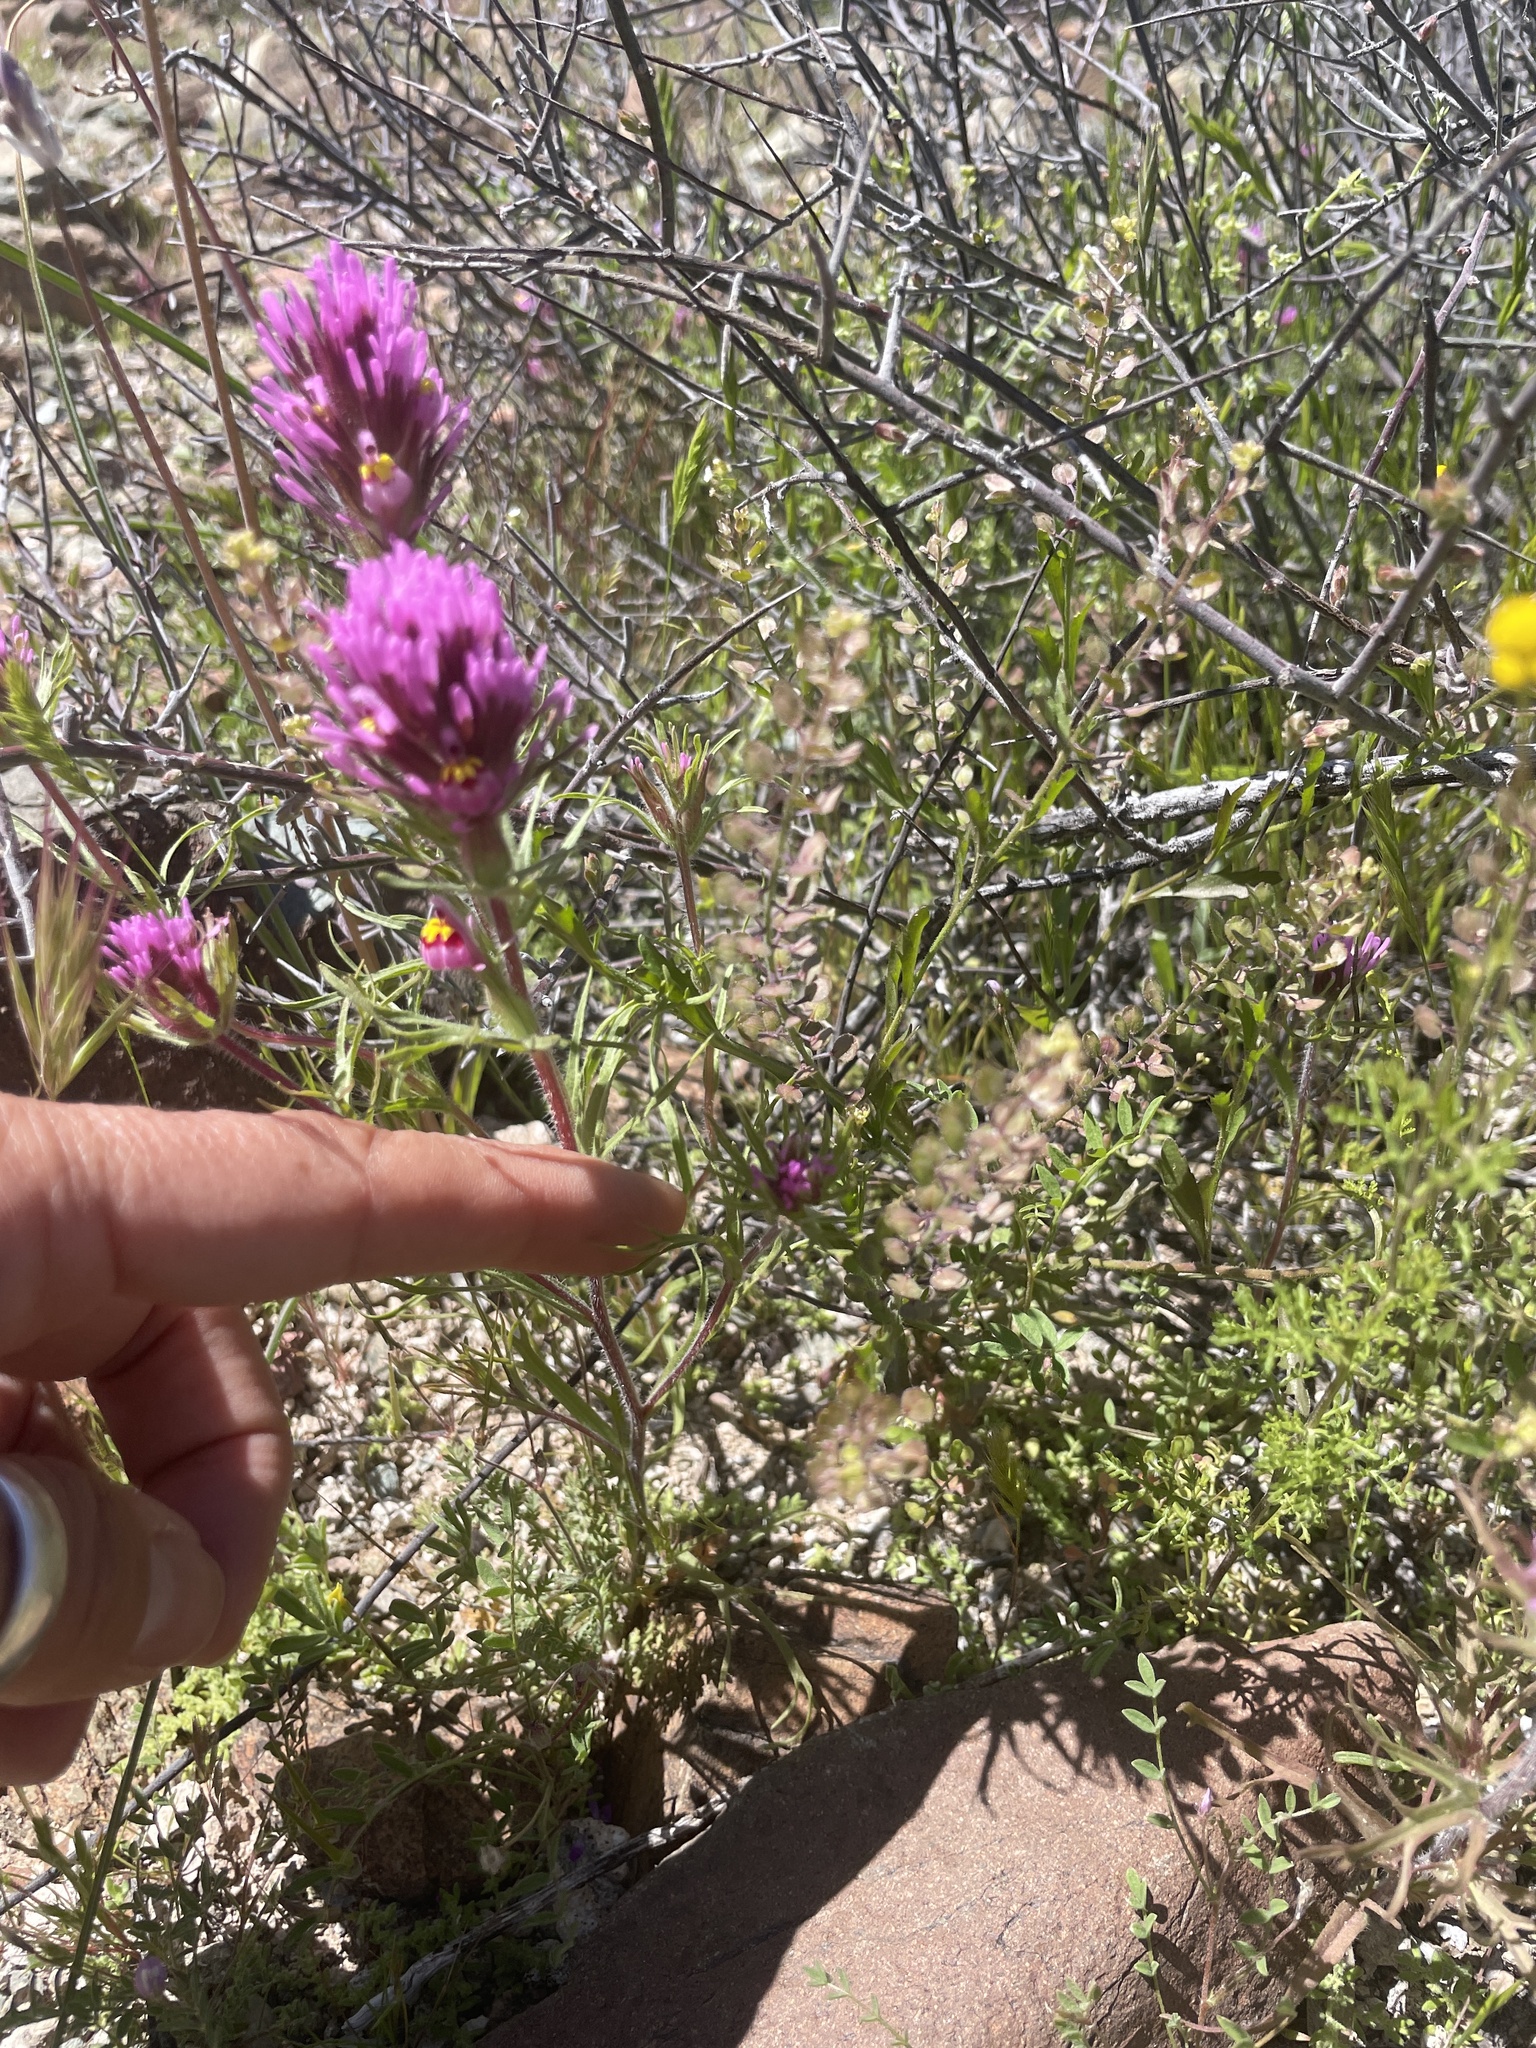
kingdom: Plantae
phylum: Tracheophyta
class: Magnoliopsida
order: Lamiales
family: Orobanchaceae
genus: Castilleja
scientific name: Castilleja exserta
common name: Purple owl-clover
